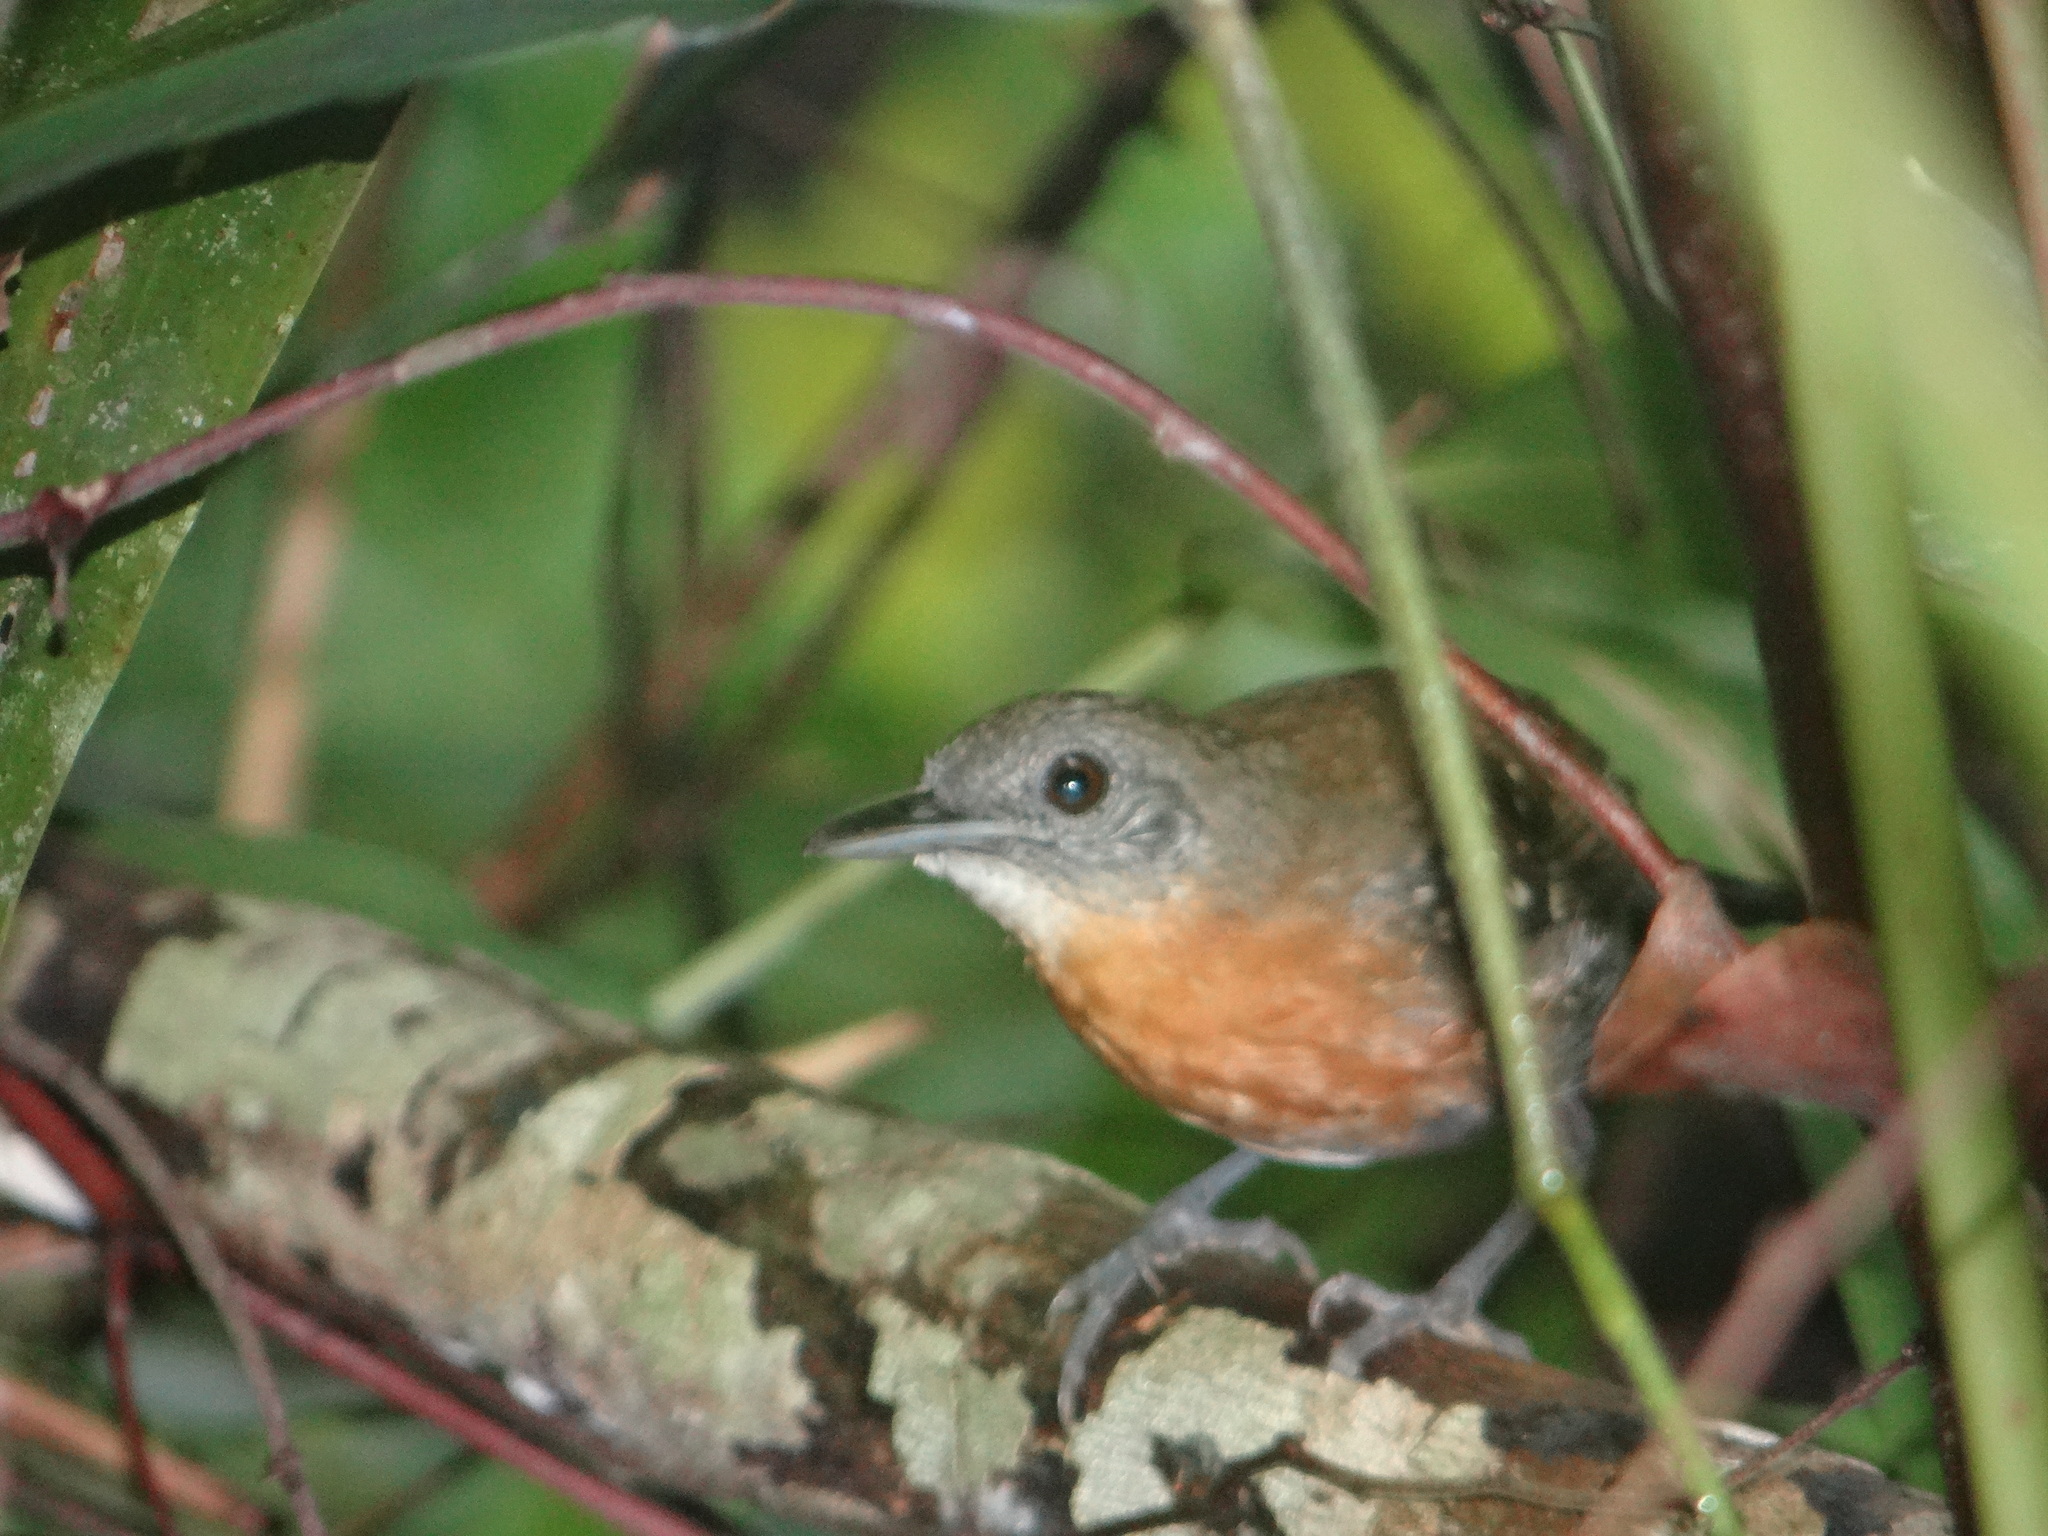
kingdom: Animalia
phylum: Chordata
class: Aves
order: Passeriformes
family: Thamnophilidae
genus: Myrmeciza
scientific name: Myrmeciza atrothorax
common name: Black-throated antbird
